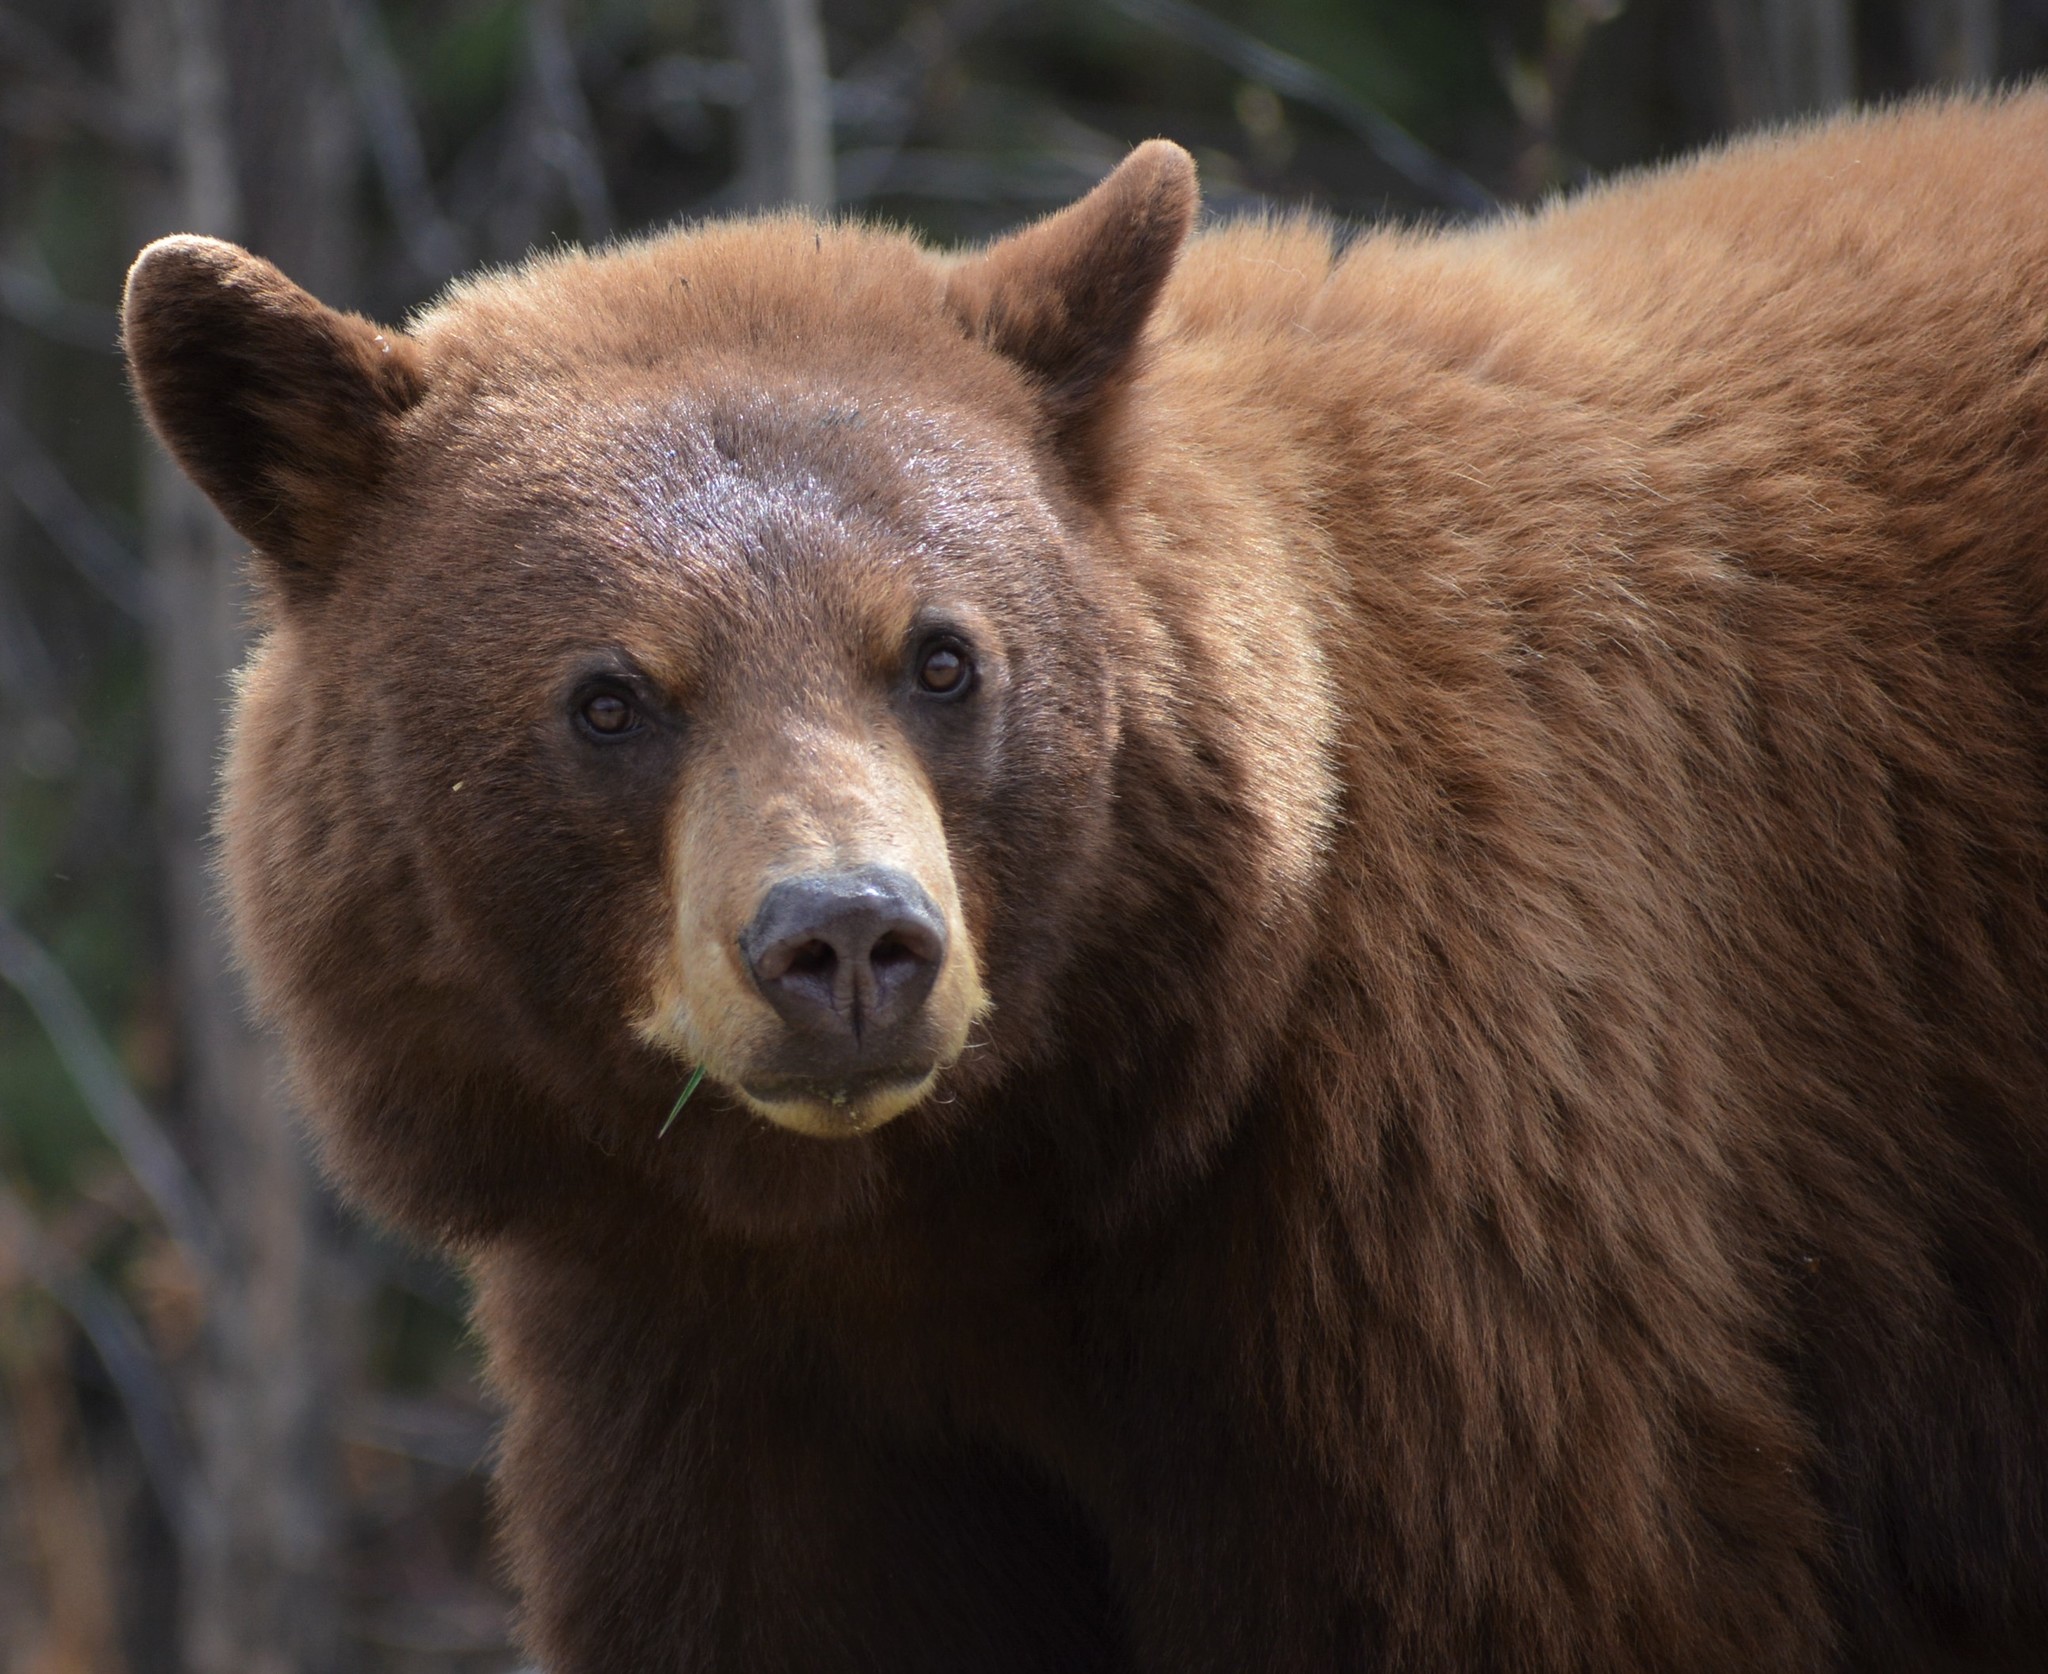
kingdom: Animalia
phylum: Chordata
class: Mammalia
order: Carnivora
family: Ursidae
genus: Ursus
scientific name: Ursus americanus
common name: American black bear
